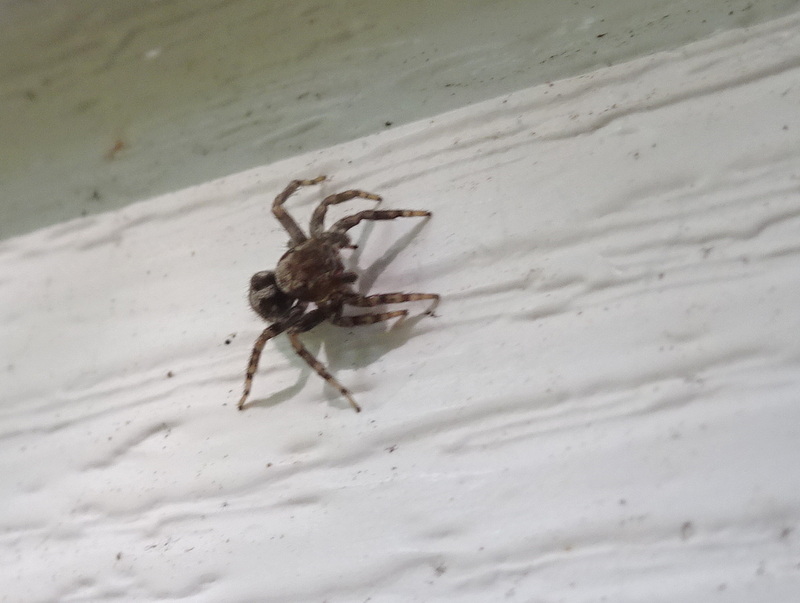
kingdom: Animalia
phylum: Arthropoda
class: Arachnida
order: Araneae
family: Salticidae
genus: Naphrys
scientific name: Naphrys pulex
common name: Flea jumping spider
